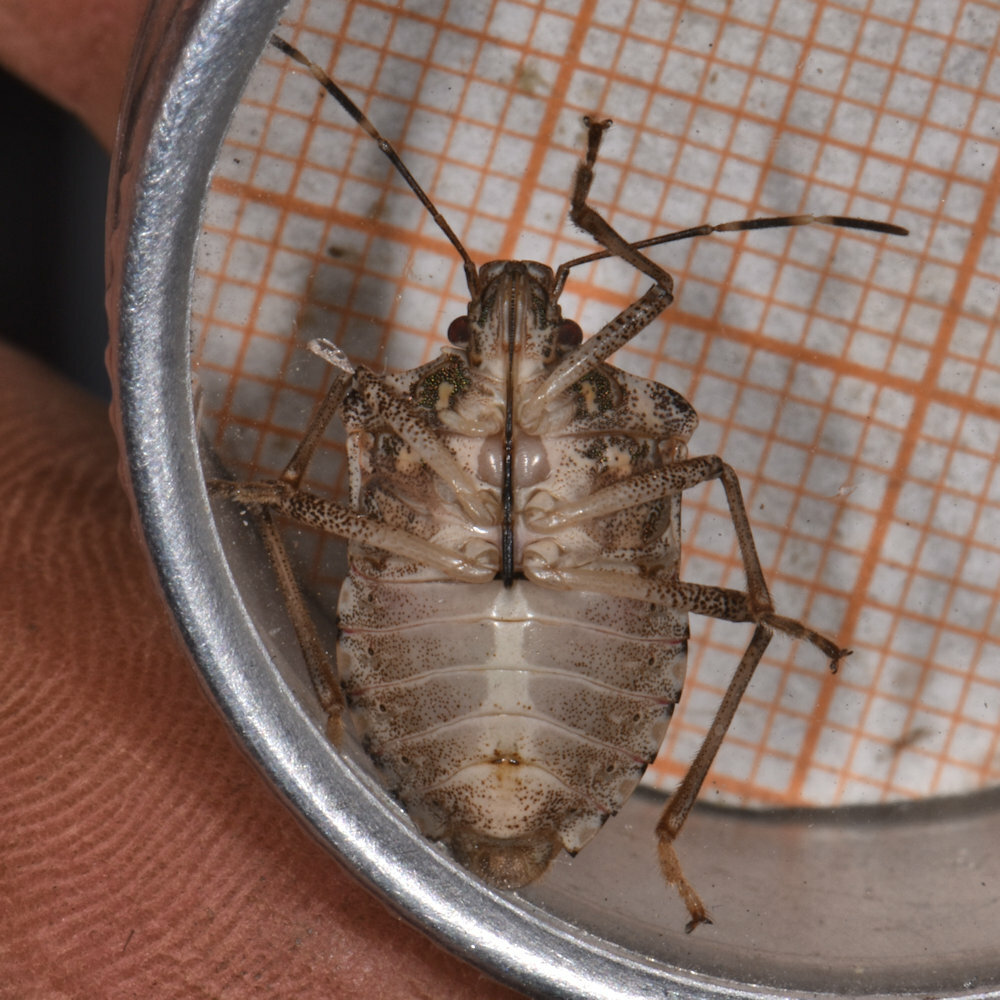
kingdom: Animalia
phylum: Arthropoda
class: Insecta
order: Hemiptera
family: Pentatomidae
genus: Halyomorpha
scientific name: Halyomorpha halys
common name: Brown marmorated stink bug
